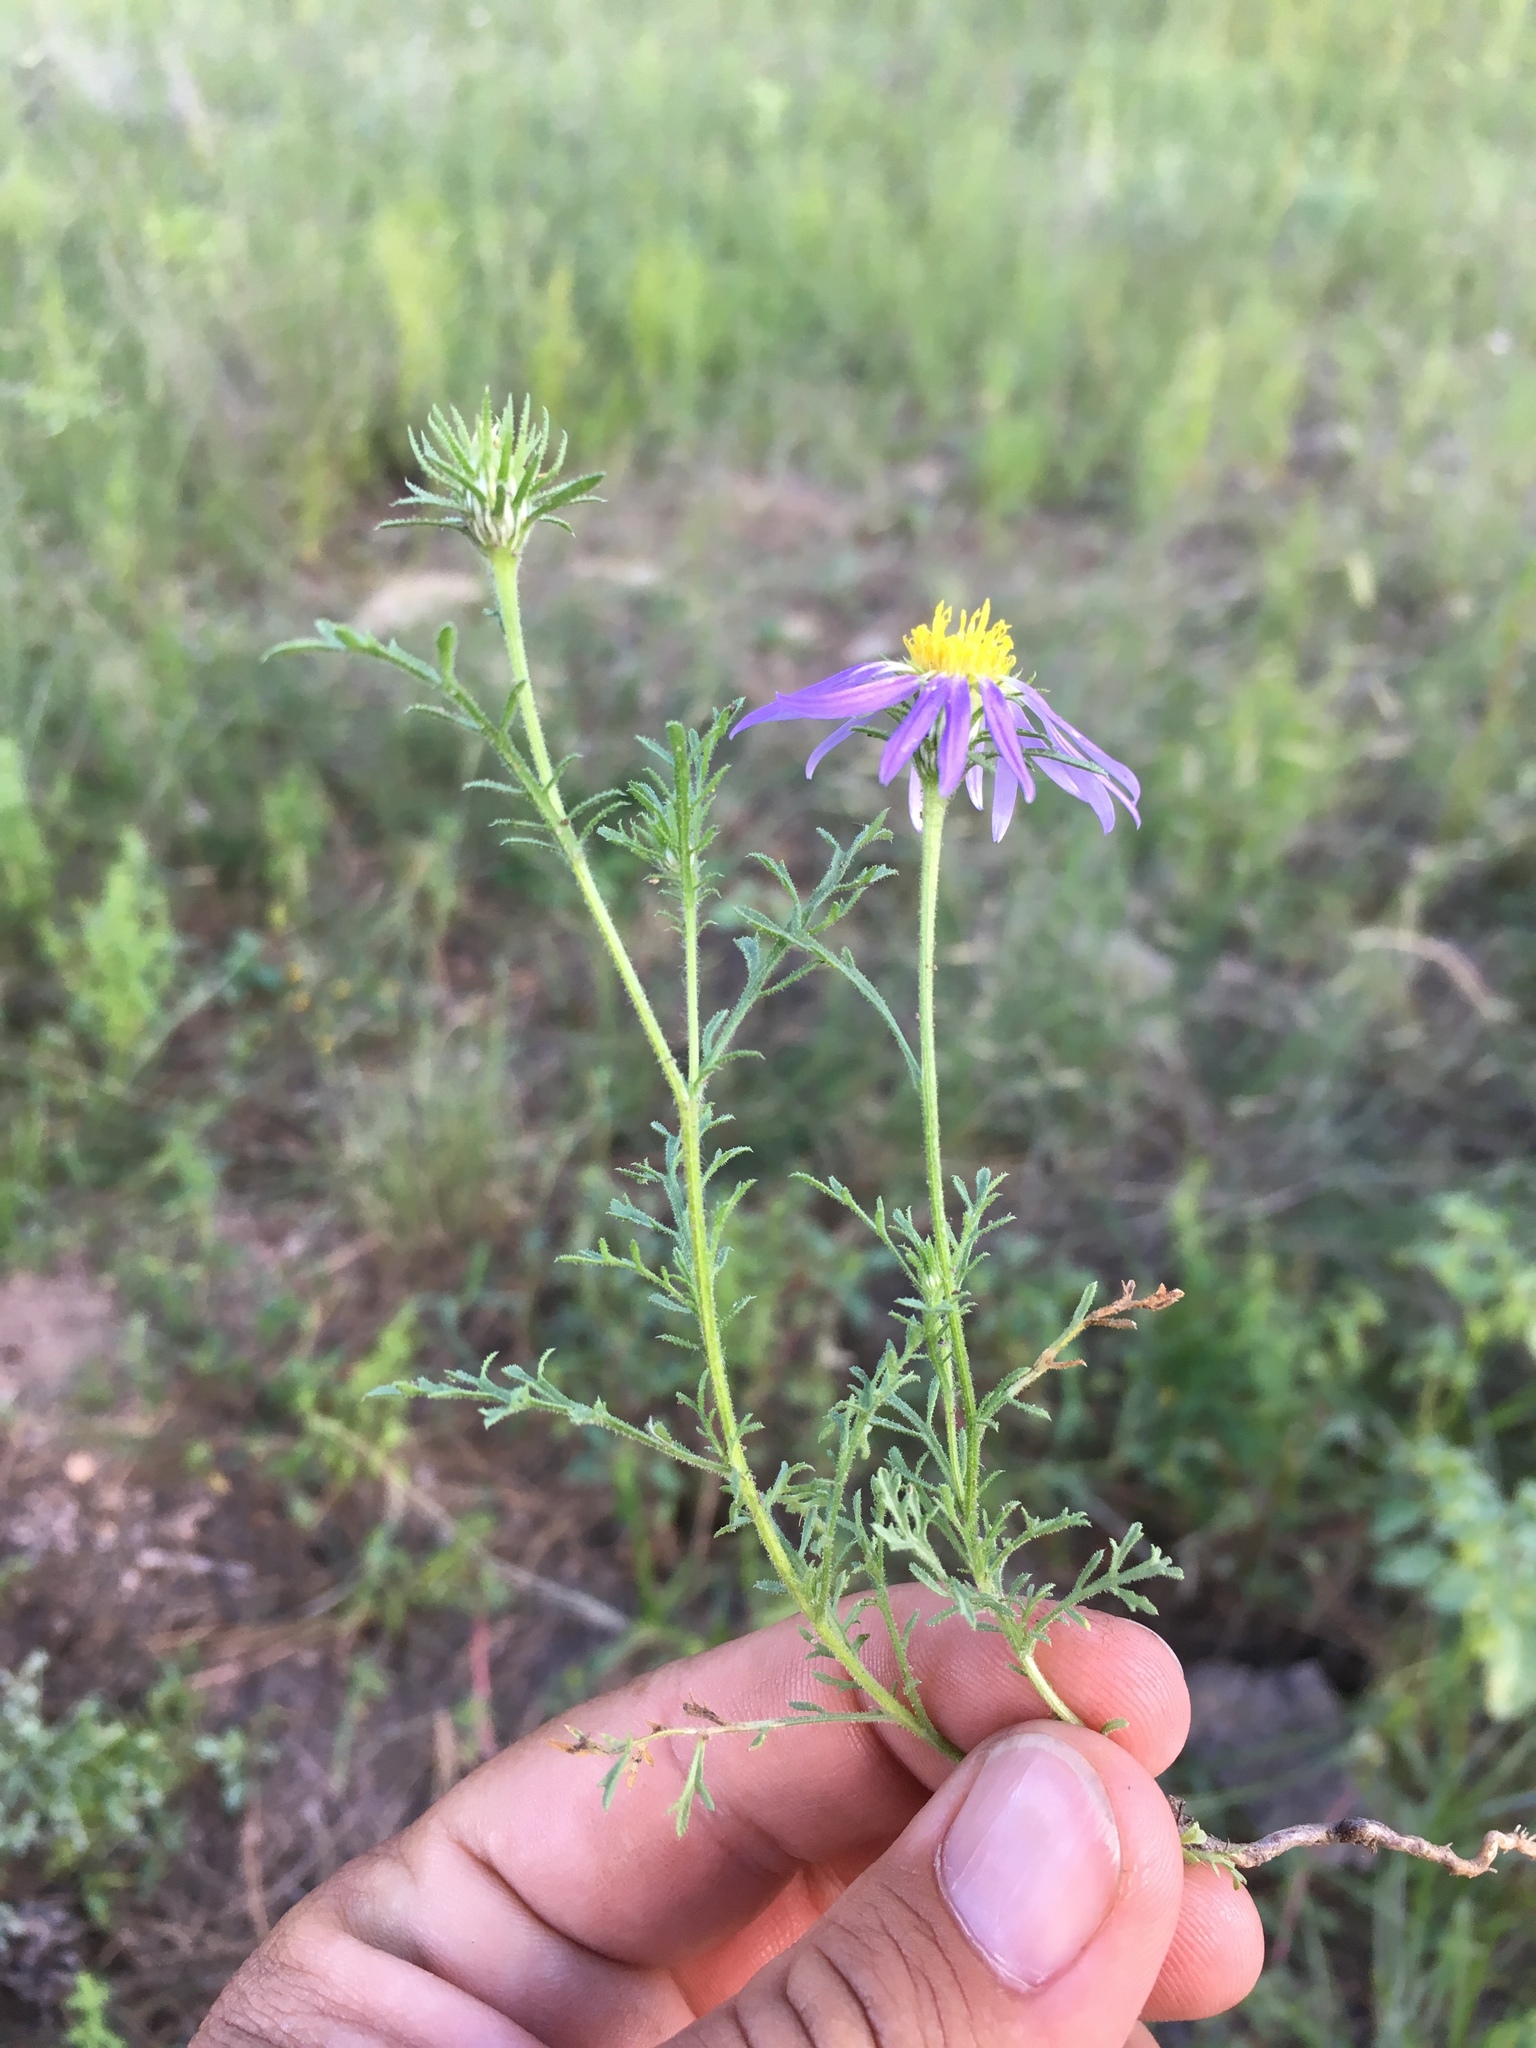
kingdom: Plantae
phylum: Tracheophyta
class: Magnoliopsida
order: Asterales
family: Asteraceae
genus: Machaeranthera
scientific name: Machaeranthera tanacetifolia
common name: Tansy-aster
